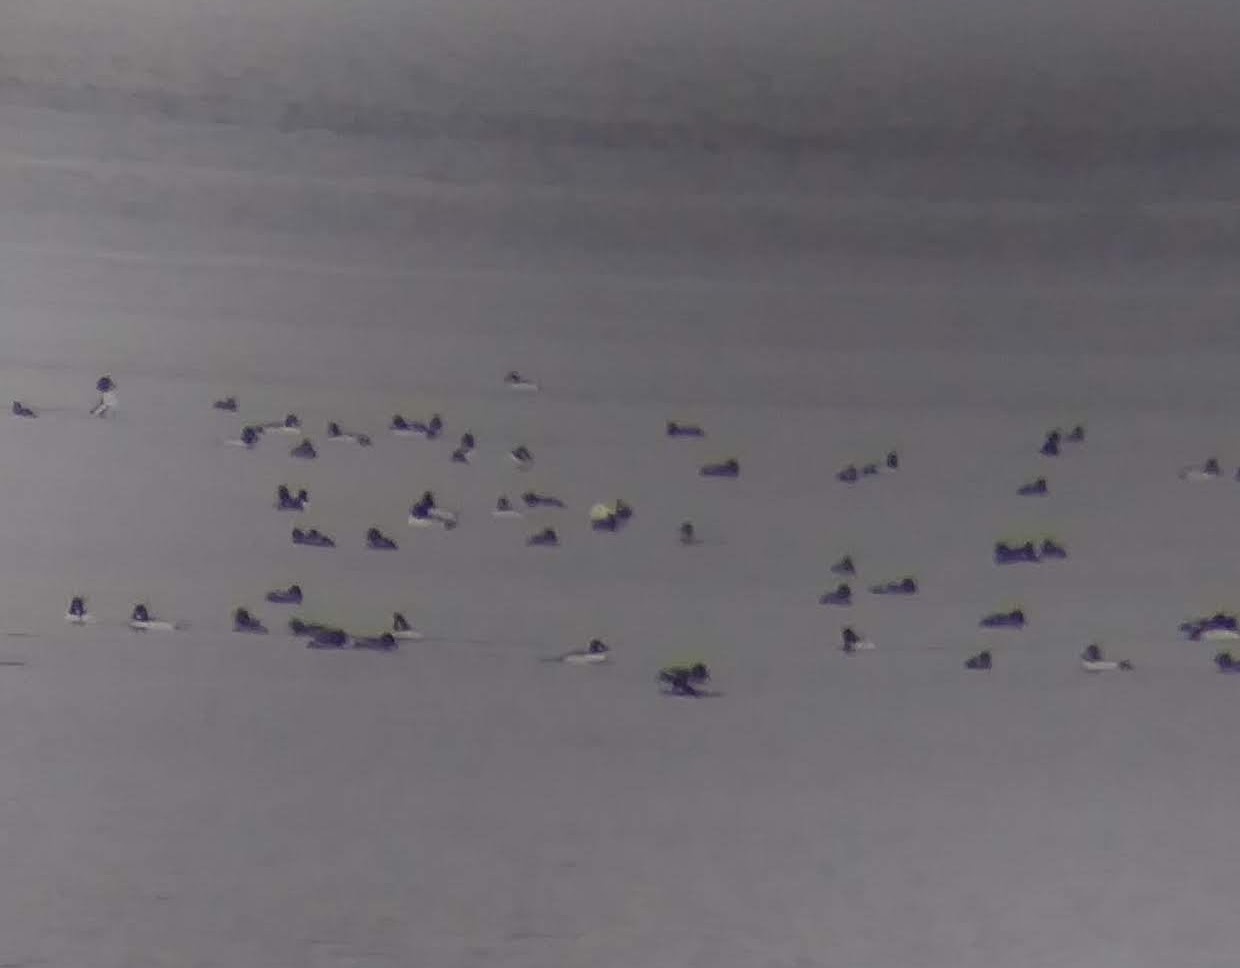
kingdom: Animalia
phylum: Chordata
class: Aves
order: Anseriformes
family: Anatidae
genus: Bucephala
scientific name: Bucephala clangula
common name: Common goldeneye
